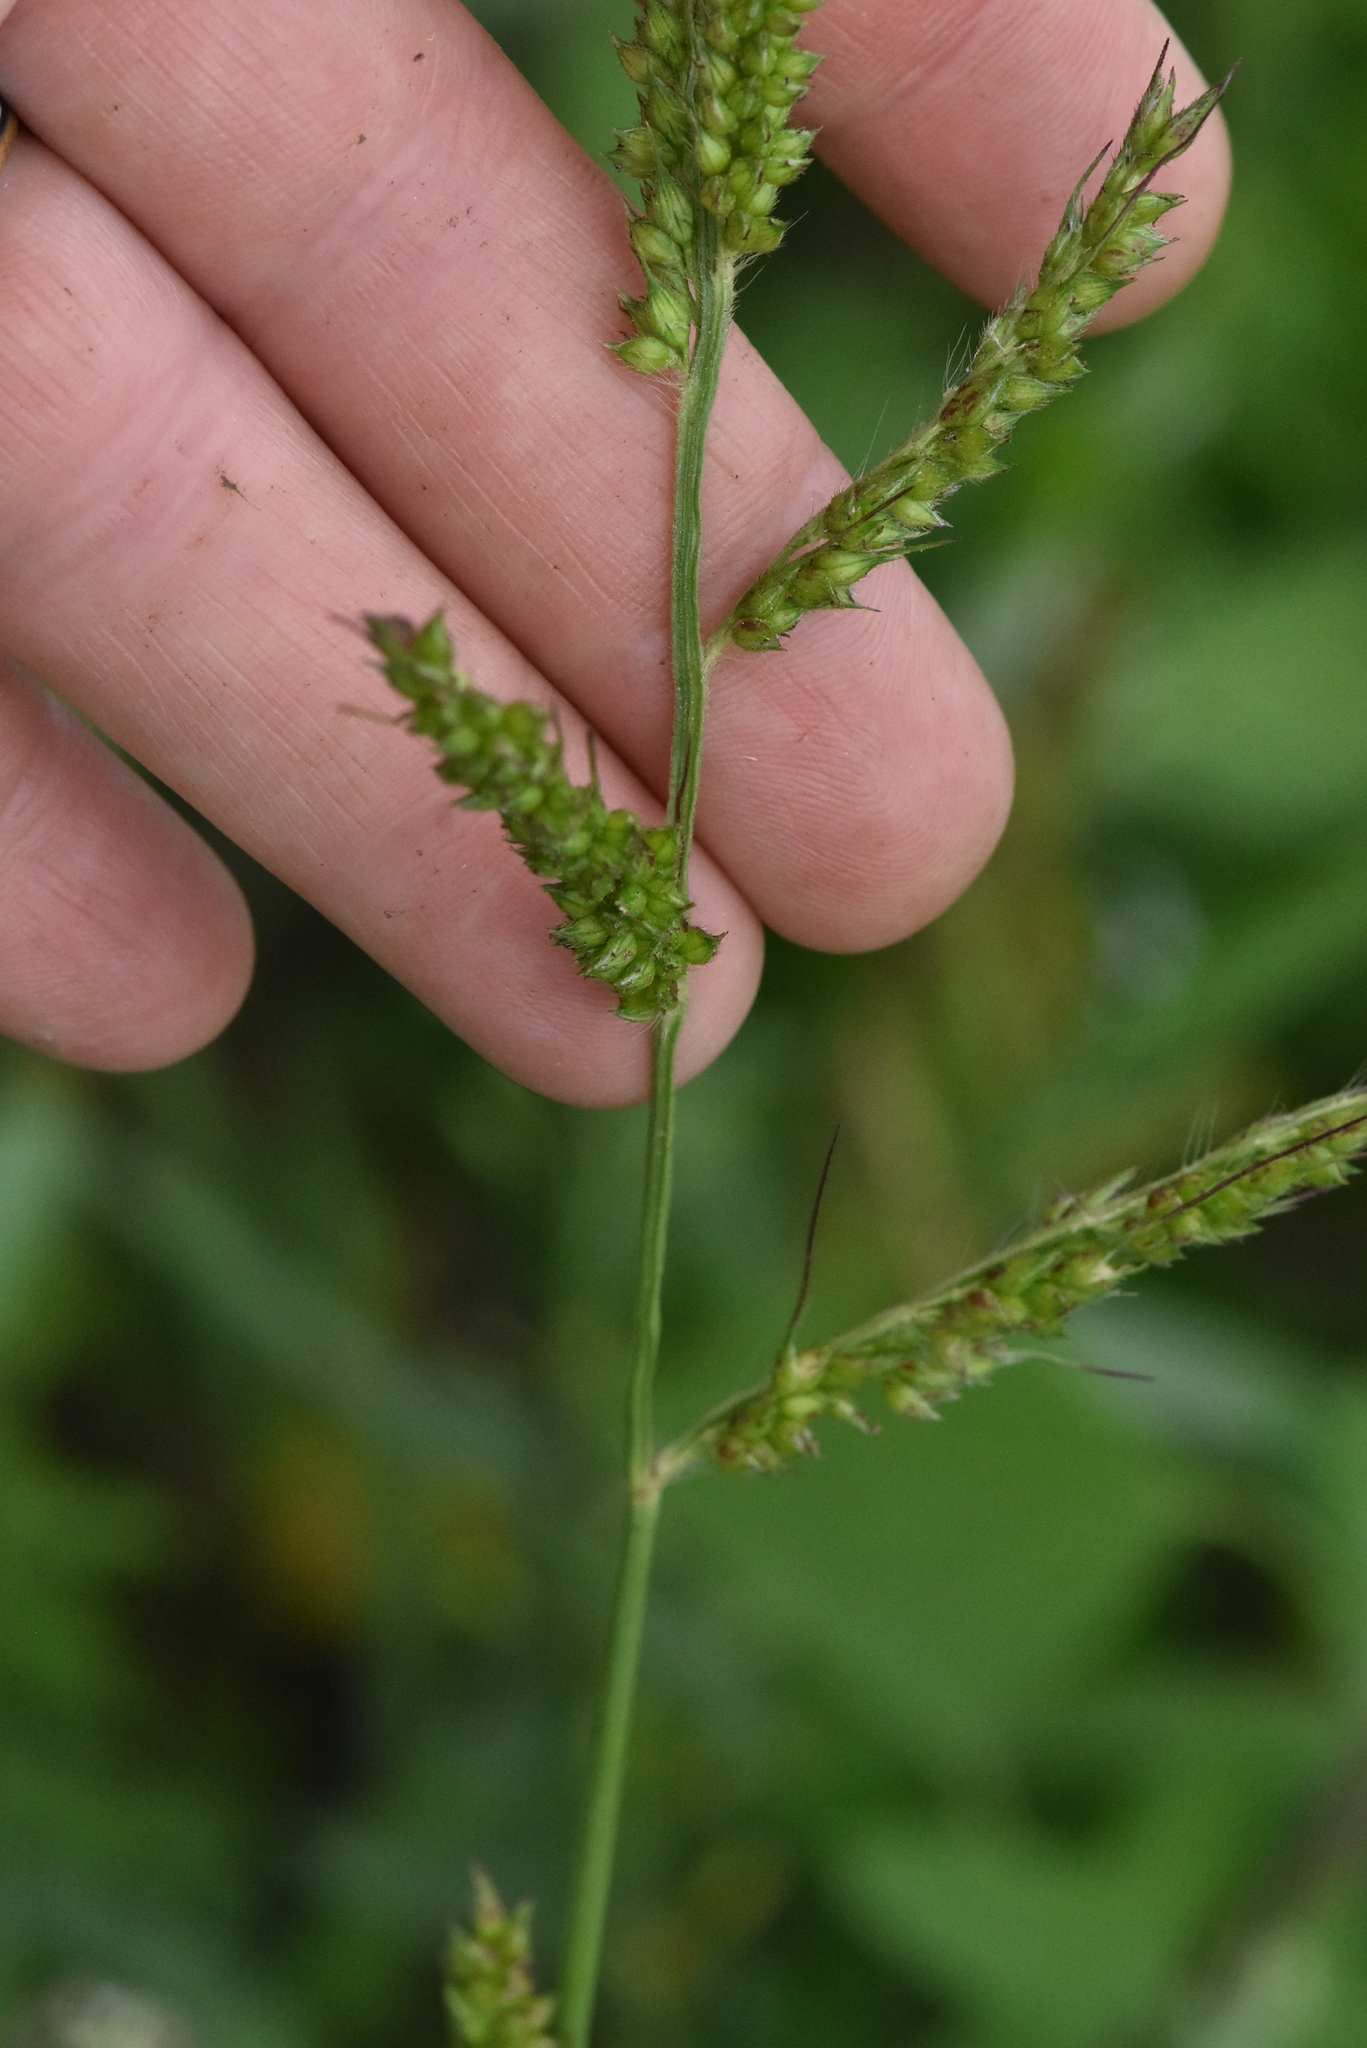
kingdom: Plantae
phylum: Tracheophyta
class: Liliopsida
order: Poales
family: Poaceae
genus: Echinochloa
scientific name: Echinochloa crus-galli
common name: Cockspur
